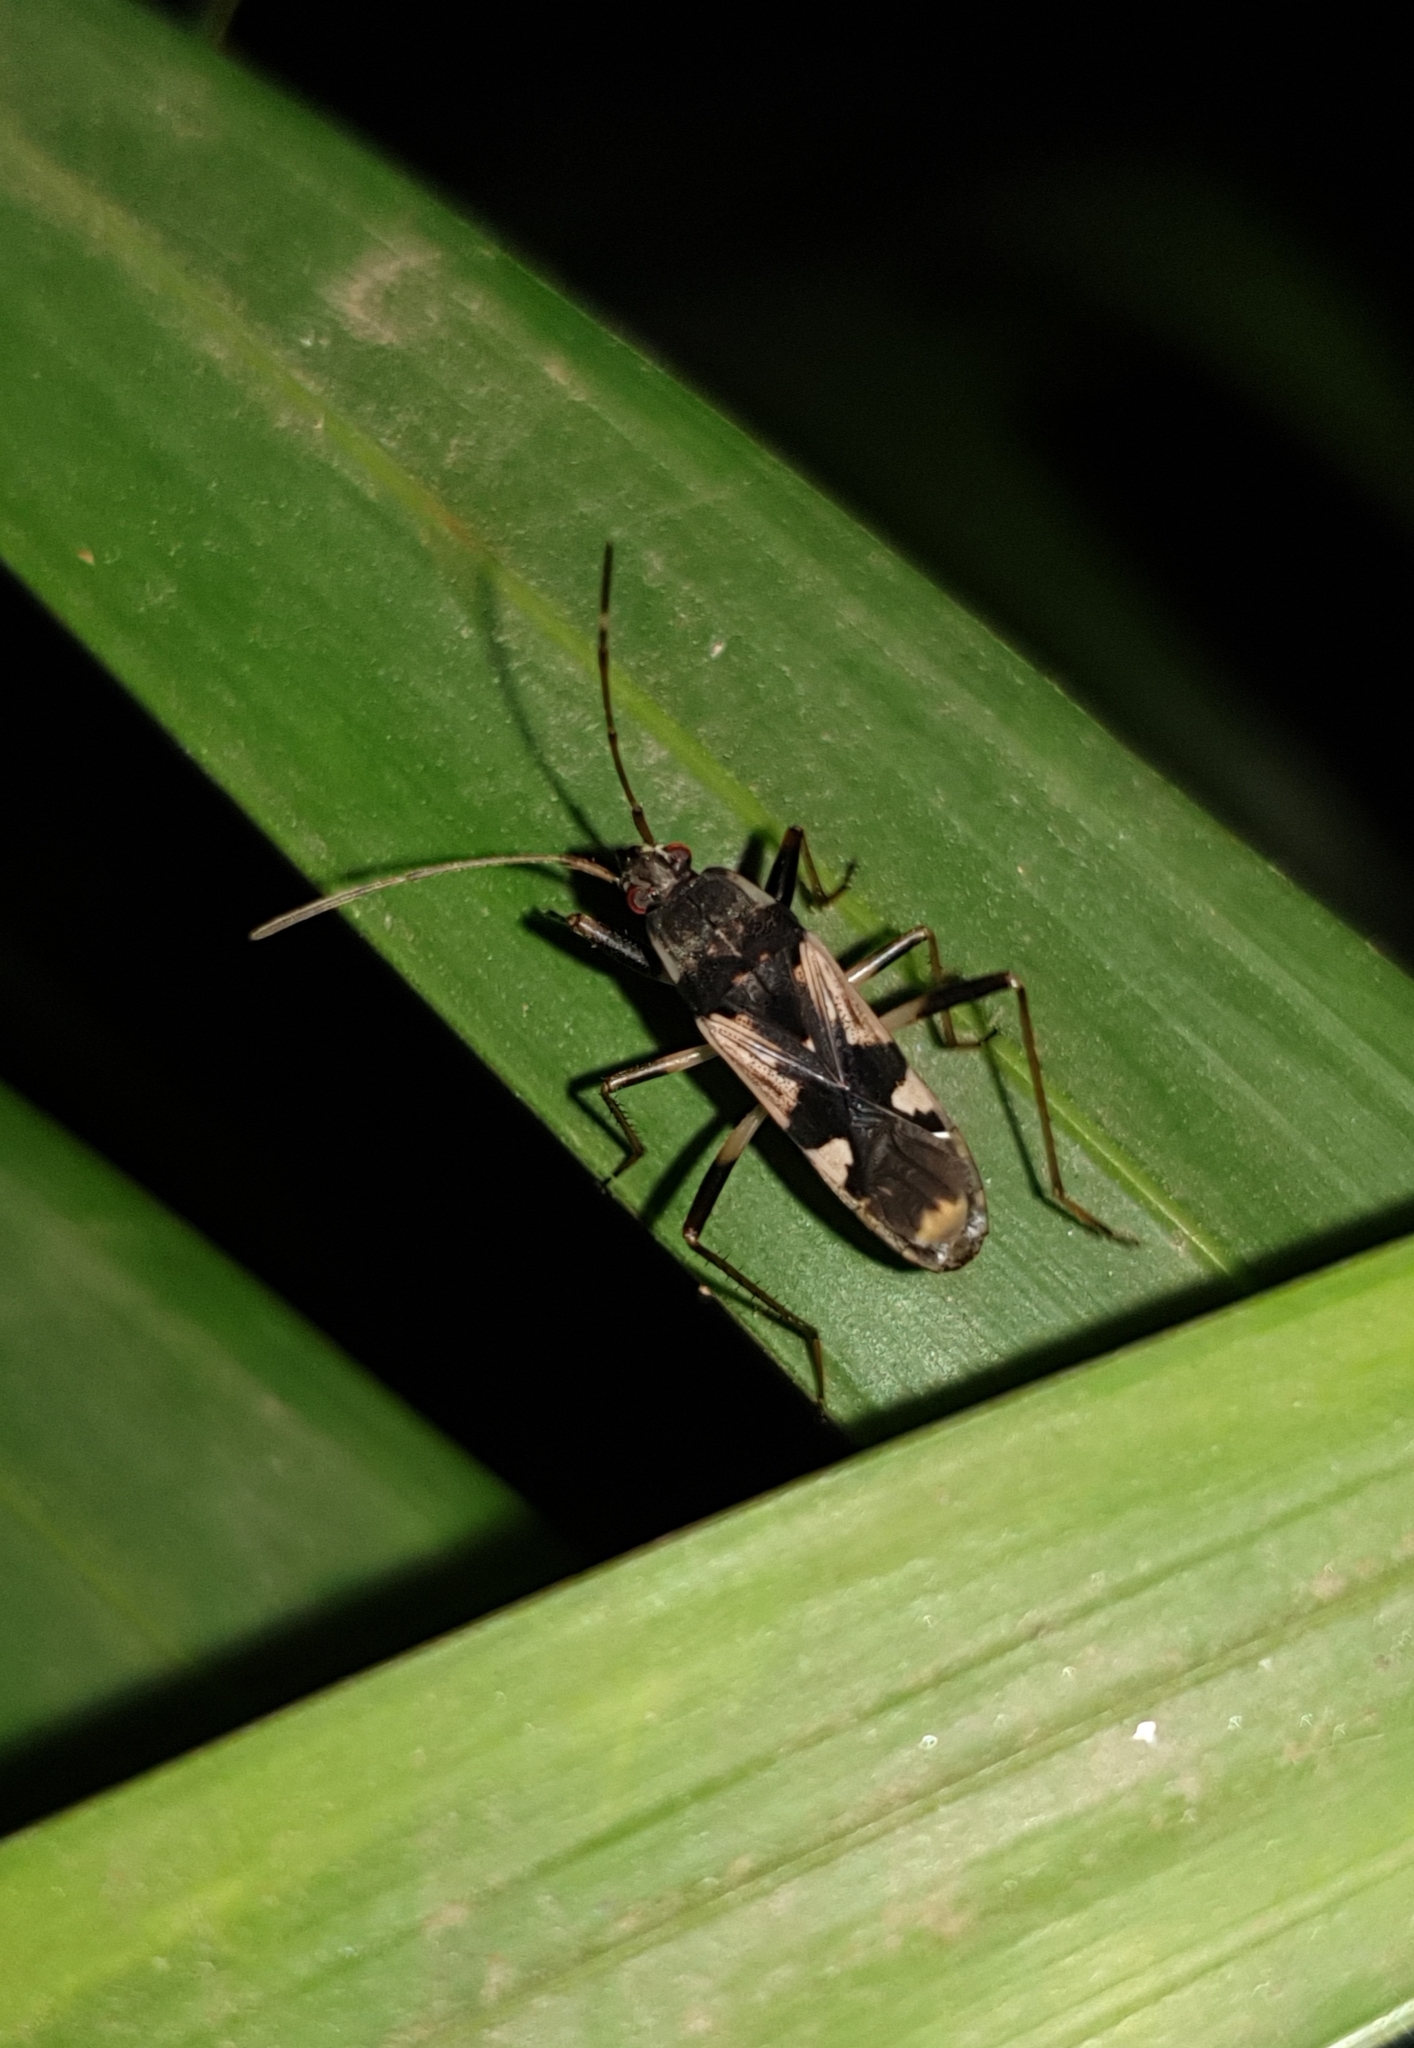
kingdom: Animalia
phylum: Arthropoda
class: Insecta
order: Hemiptera
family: Rhyparochromidae
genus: Dieuches
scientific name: Dieuches
